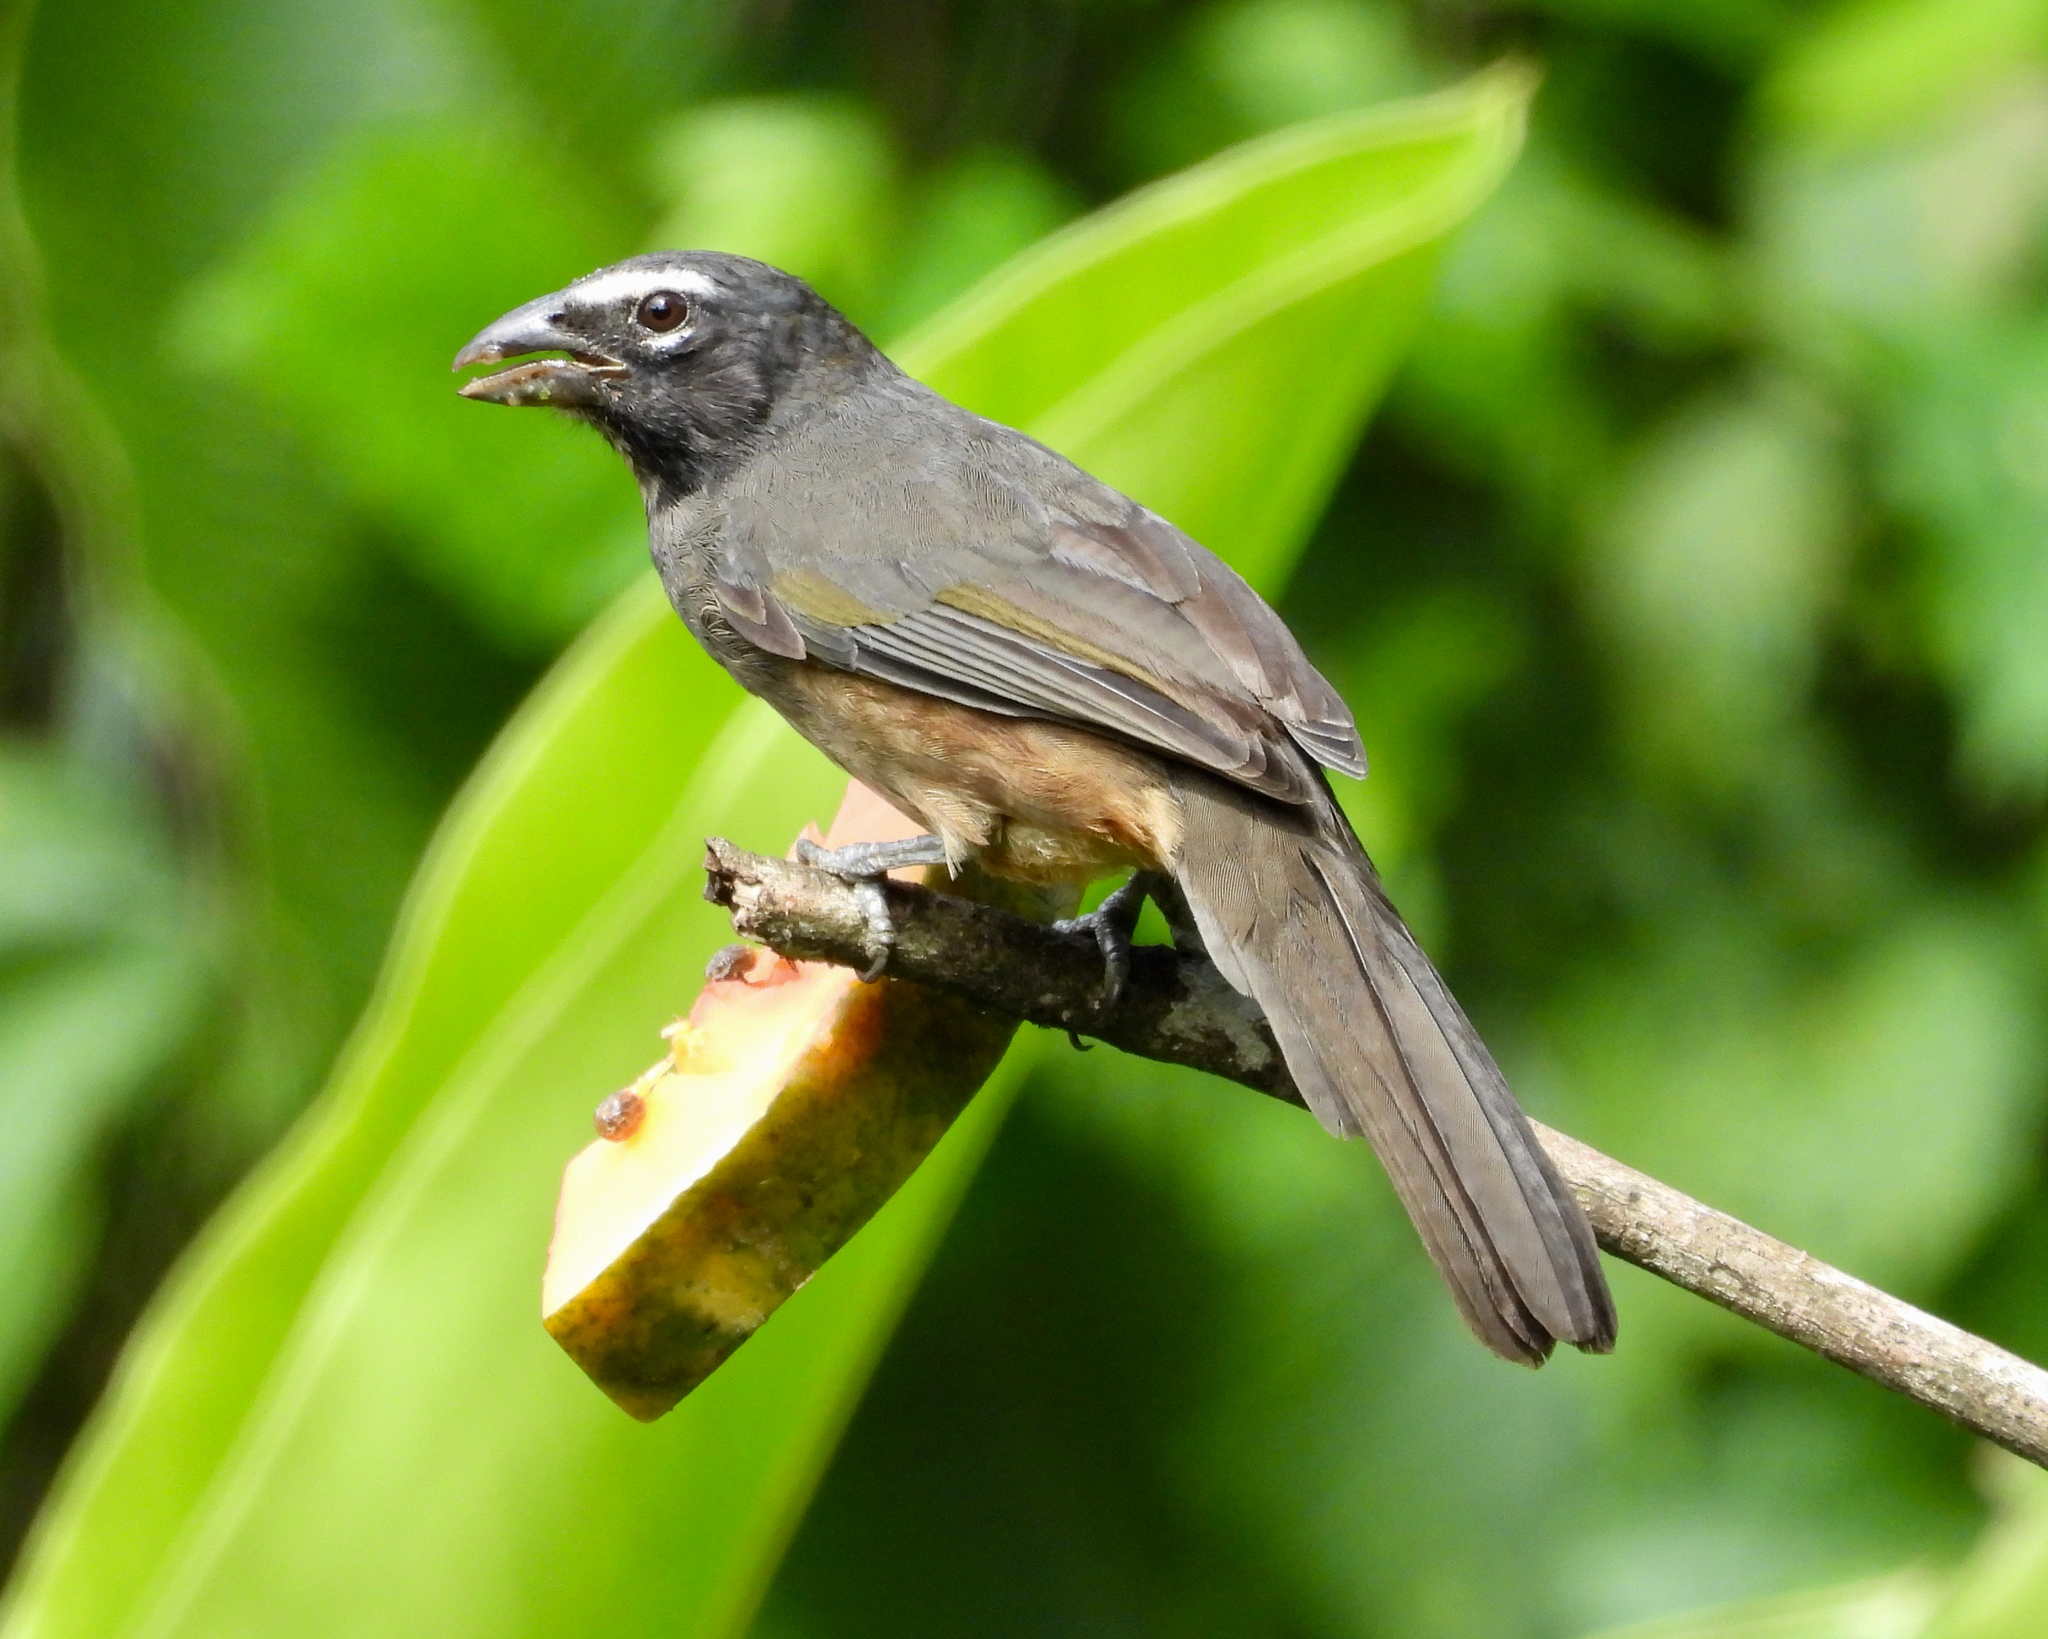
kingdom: Animalia
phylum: Chordata
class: Aves
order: Passeriformes
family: Thraupidae
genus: Saltator
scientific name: Saltator grandis
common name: Cinnamon-bellied saltator
